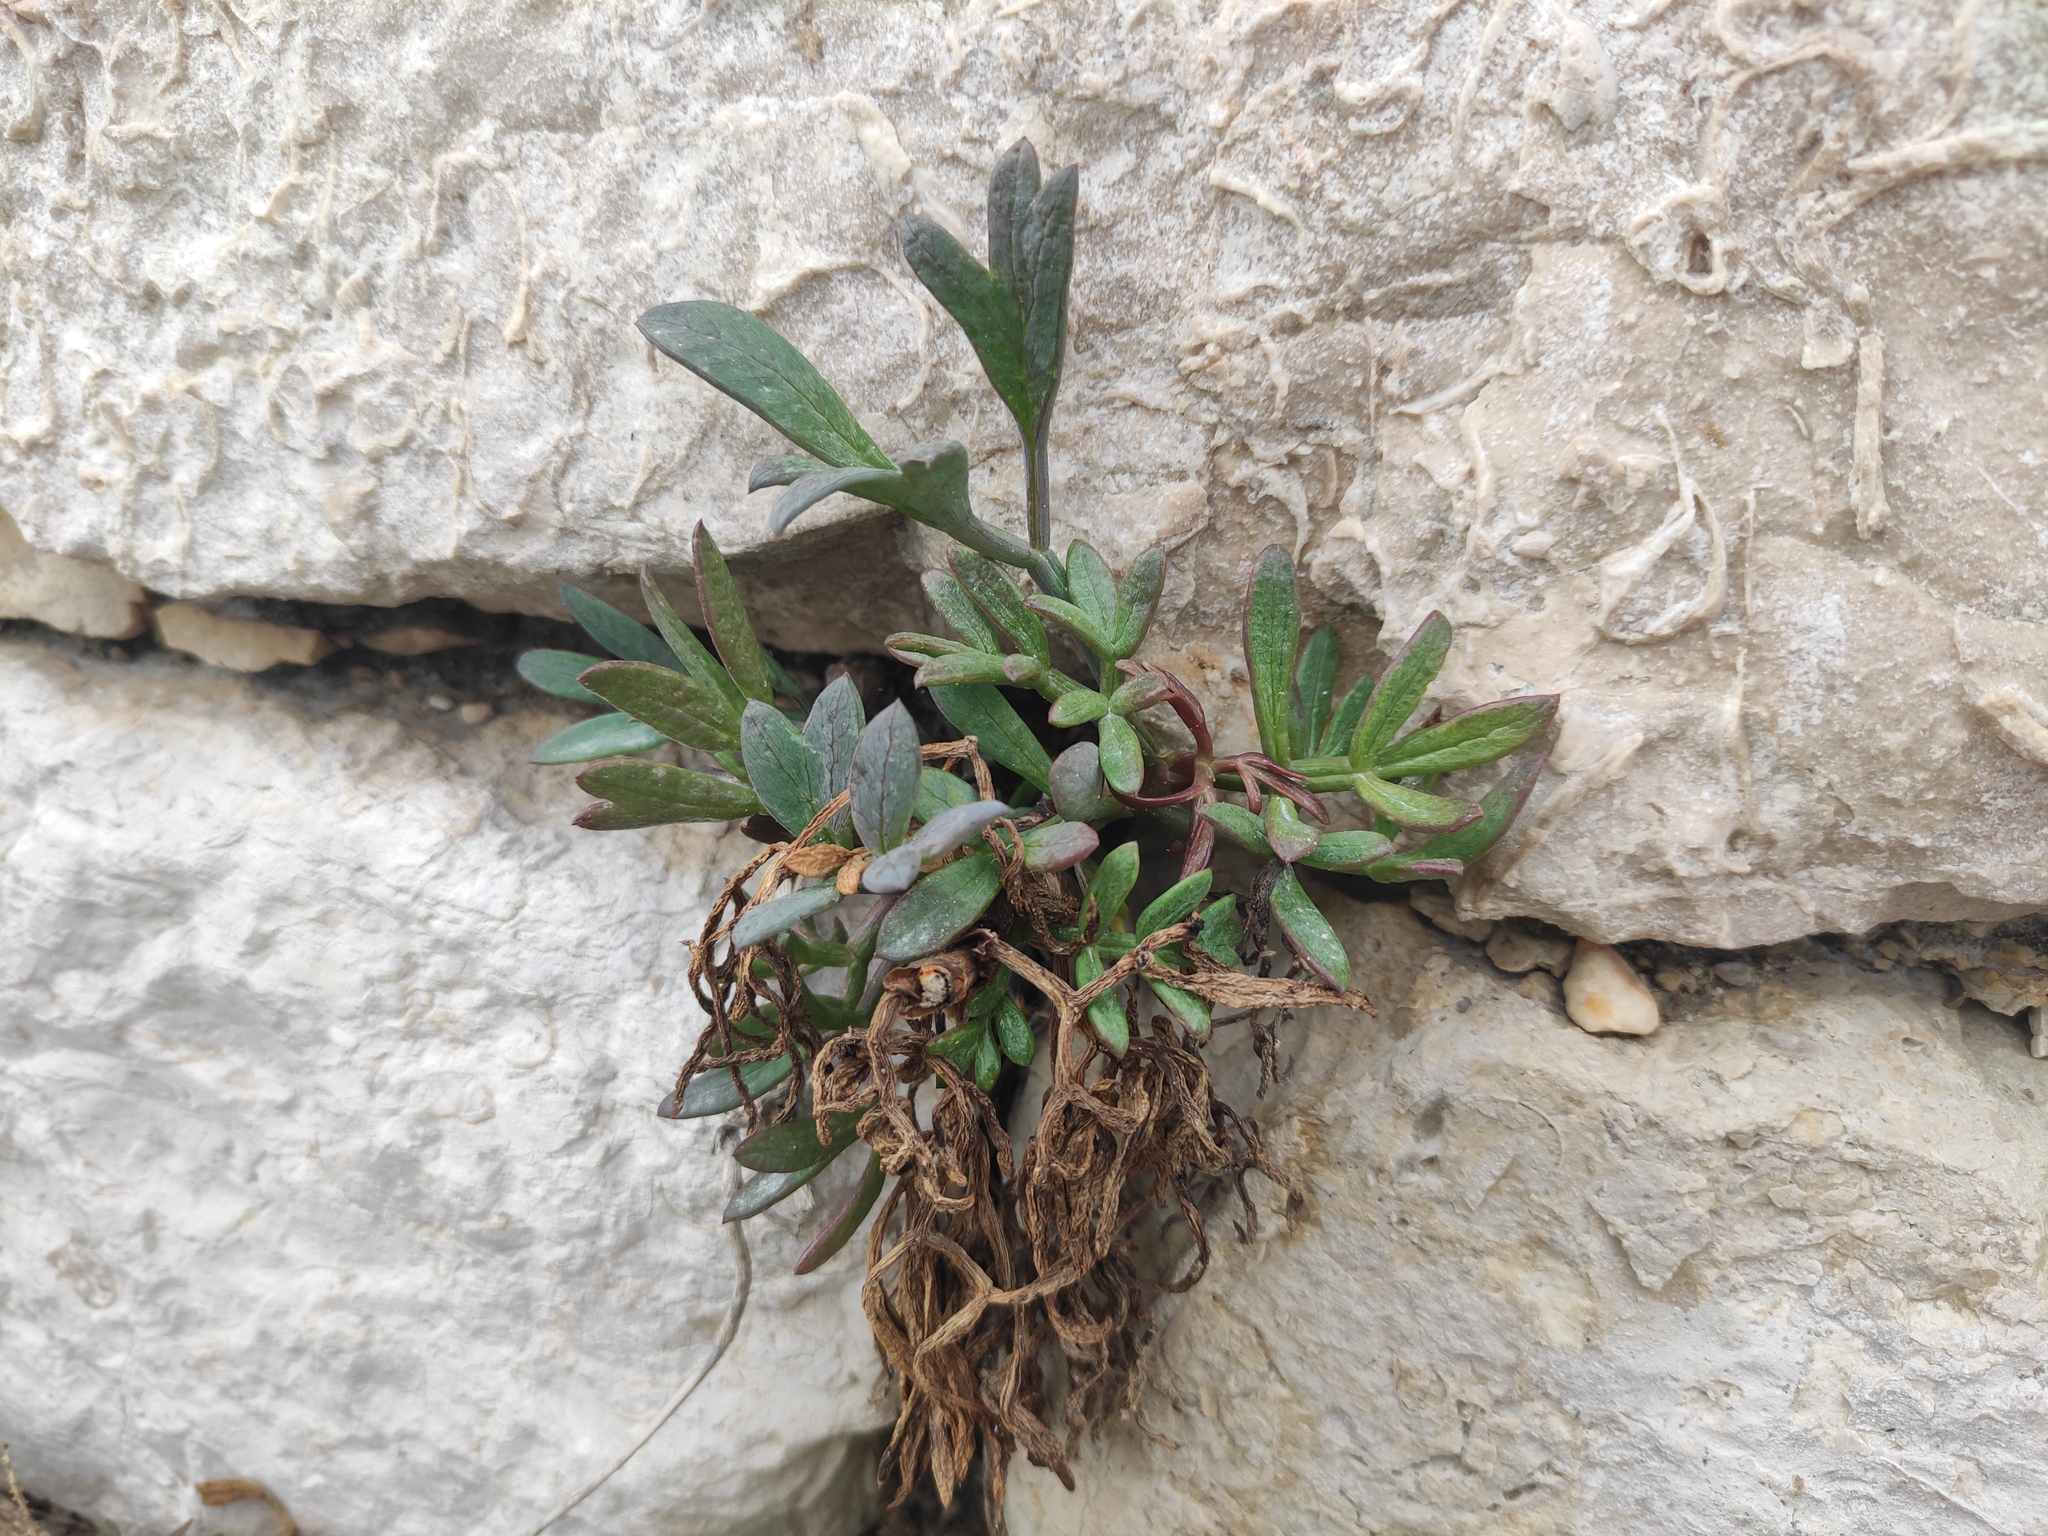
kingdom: Plantae
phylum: Tracheophyta
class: Magnoliopsida
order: Apiales
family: Apiaceae
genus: Crithmum
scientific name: Crithmum maritimum
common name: Rock samphire
